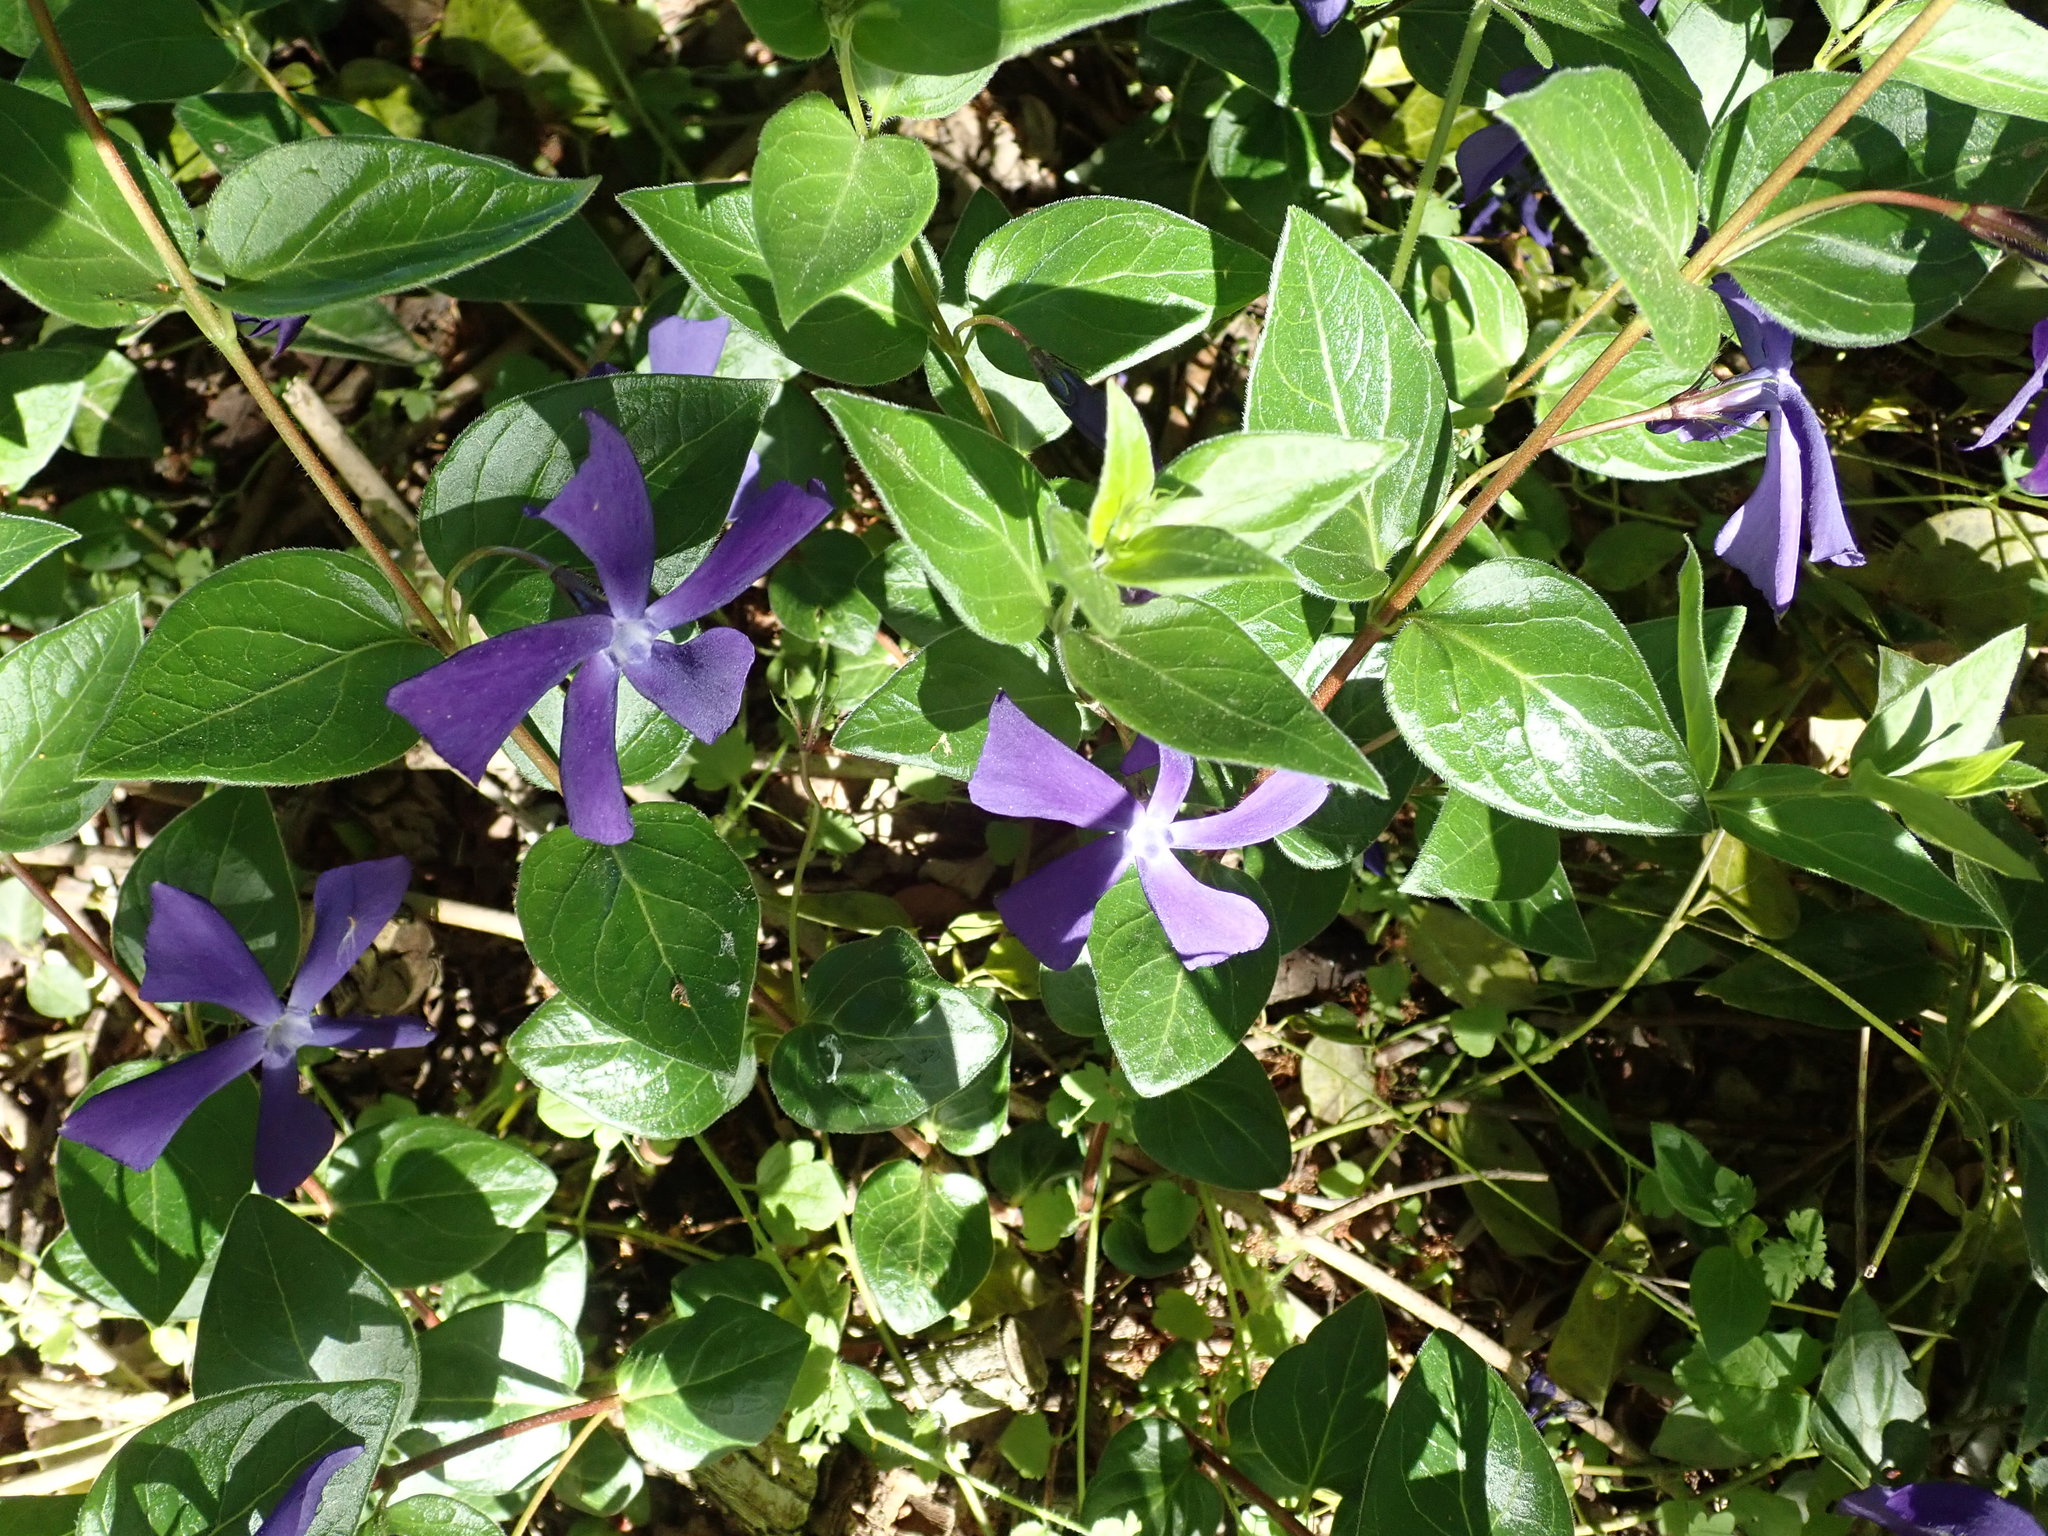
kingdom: Plantae
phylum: Tracheophyta
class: Magnoliopsida
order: Gentianales
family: Apocynaceae
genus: Vinca
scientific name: Vinca major
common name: Greater periwinkle
